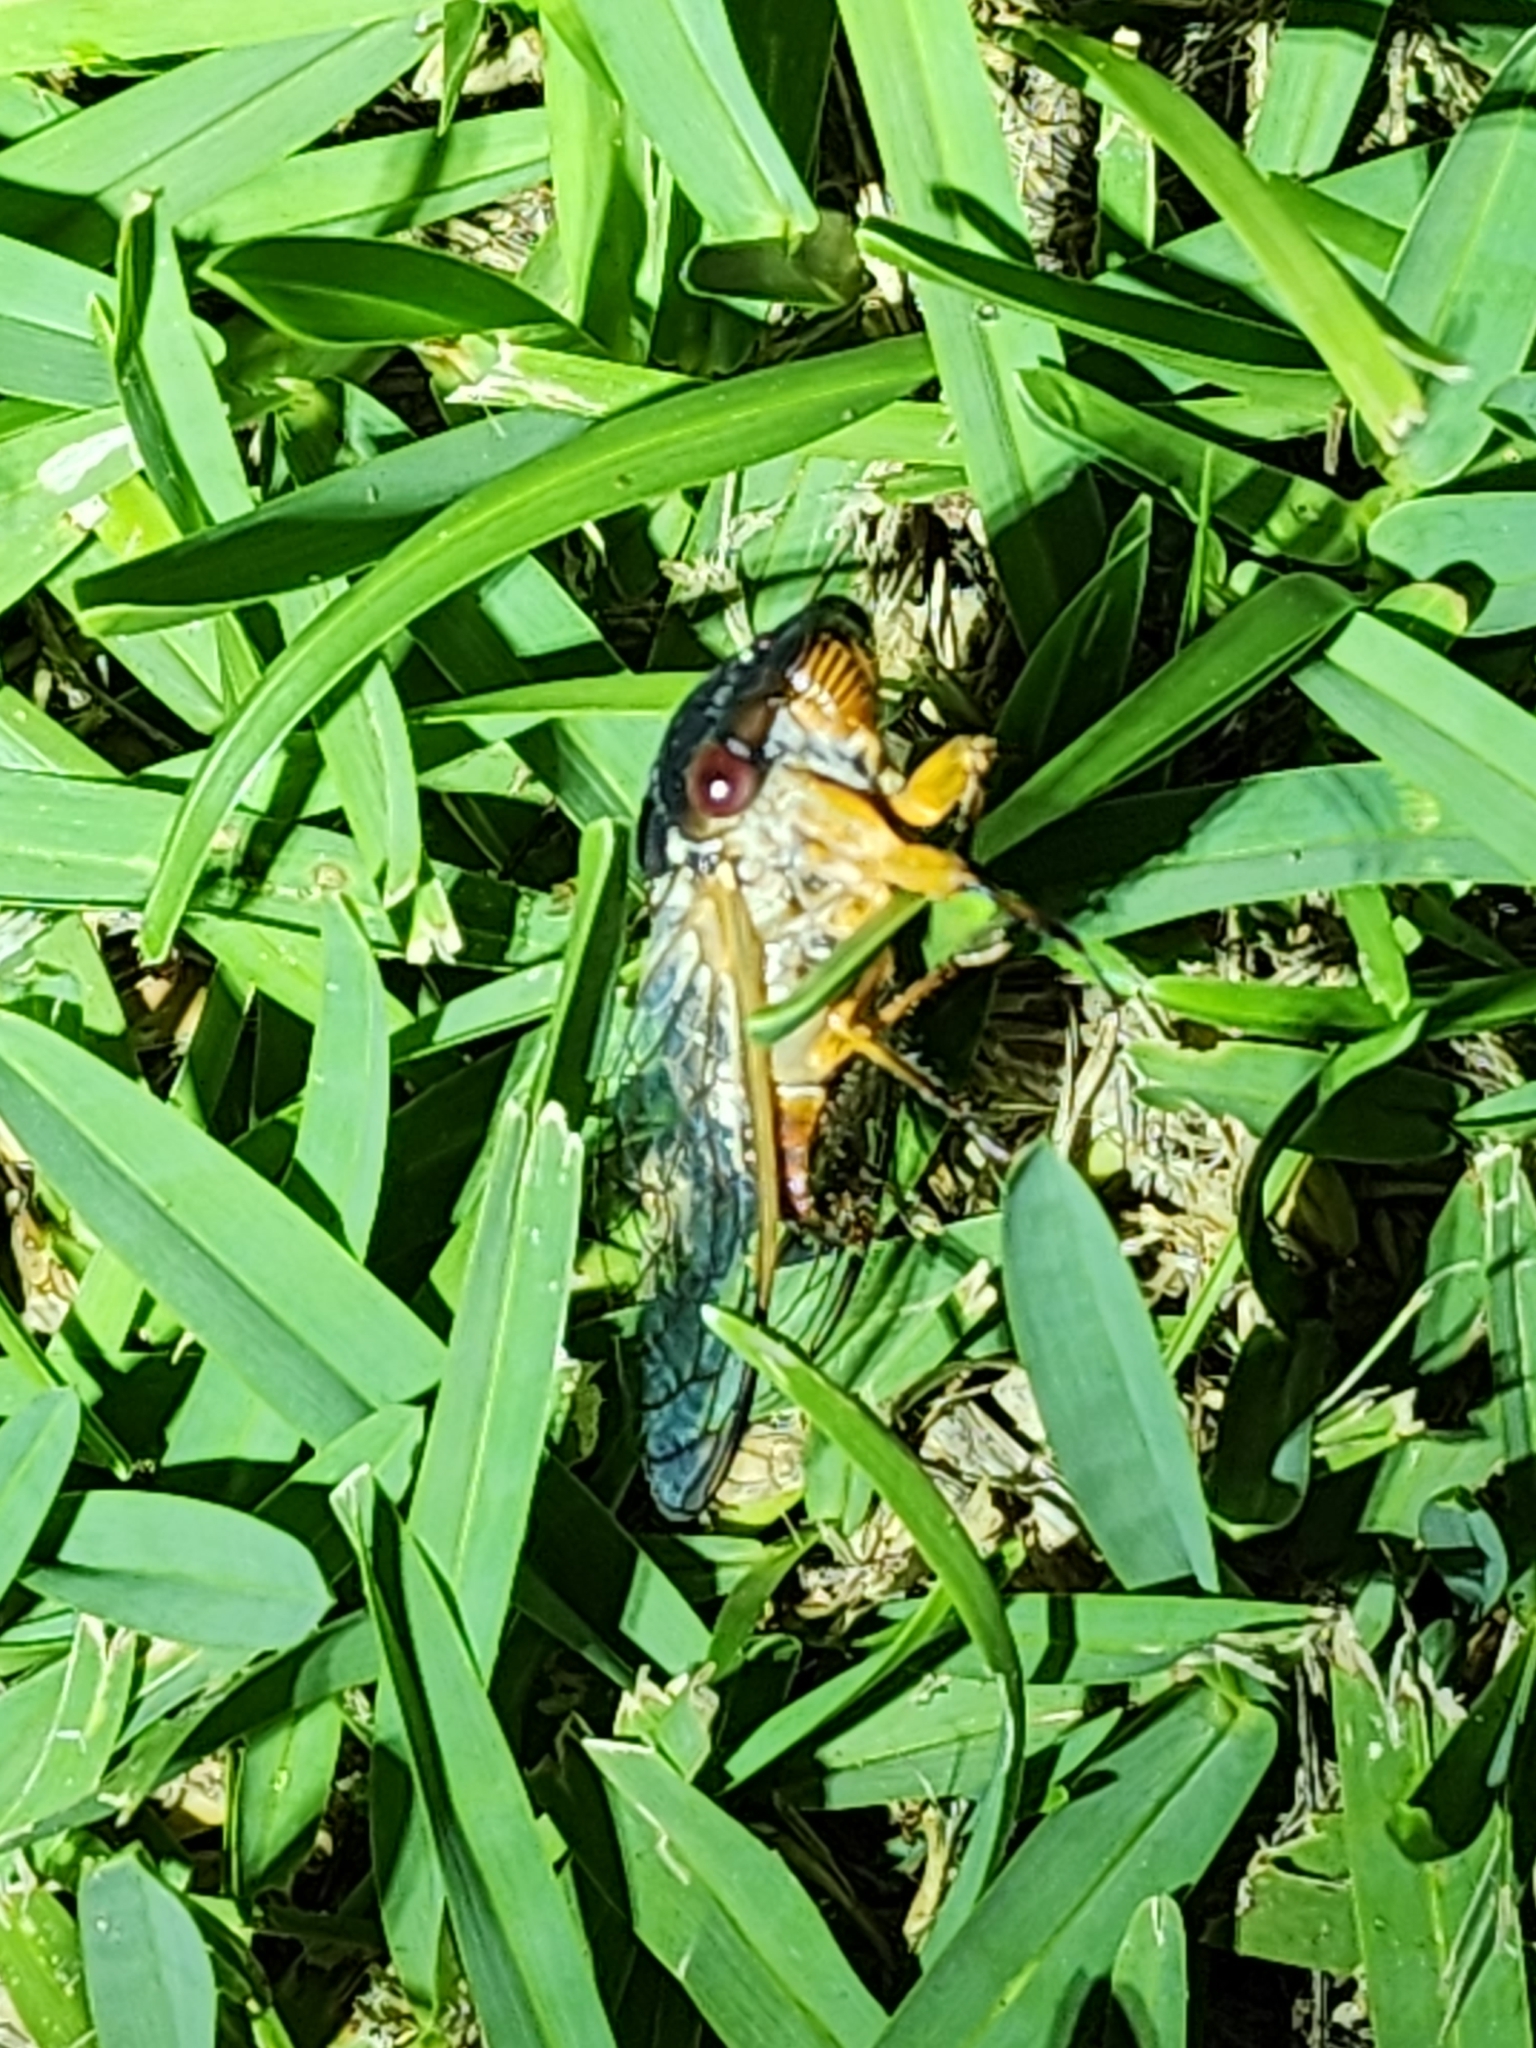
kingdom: Animalia
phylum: Arthropoda
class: Insecta
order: Hemiptera
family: Cicadidae
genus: Psaltoda
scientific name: Psaltoda claripennis
